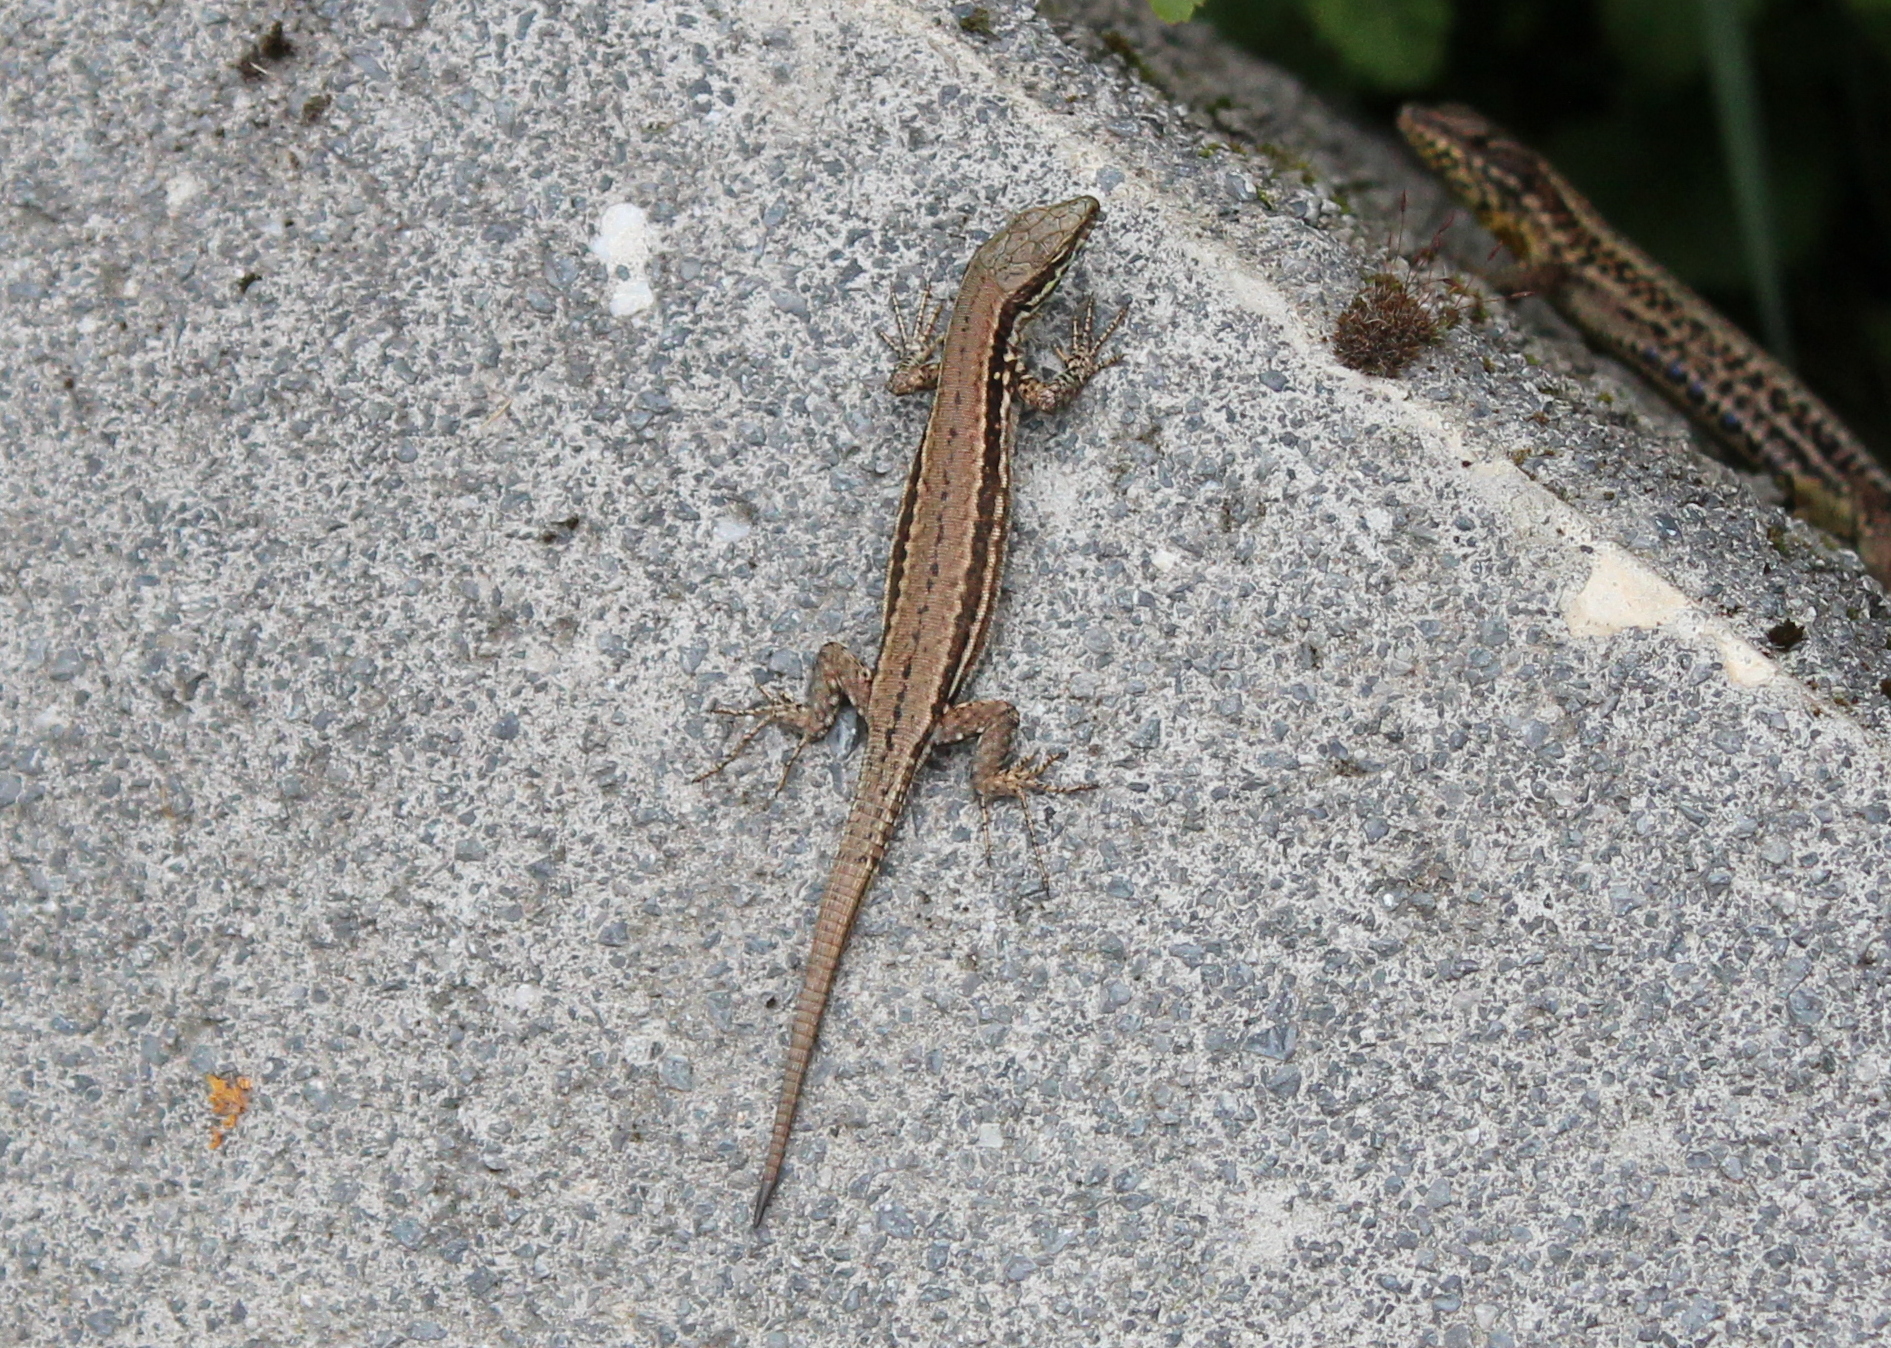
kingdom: Animalia
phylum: Chordata
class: Squamata
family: Lacertidae
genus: Podarcis
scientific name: Podarcis muralis
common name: Common wall lizard
